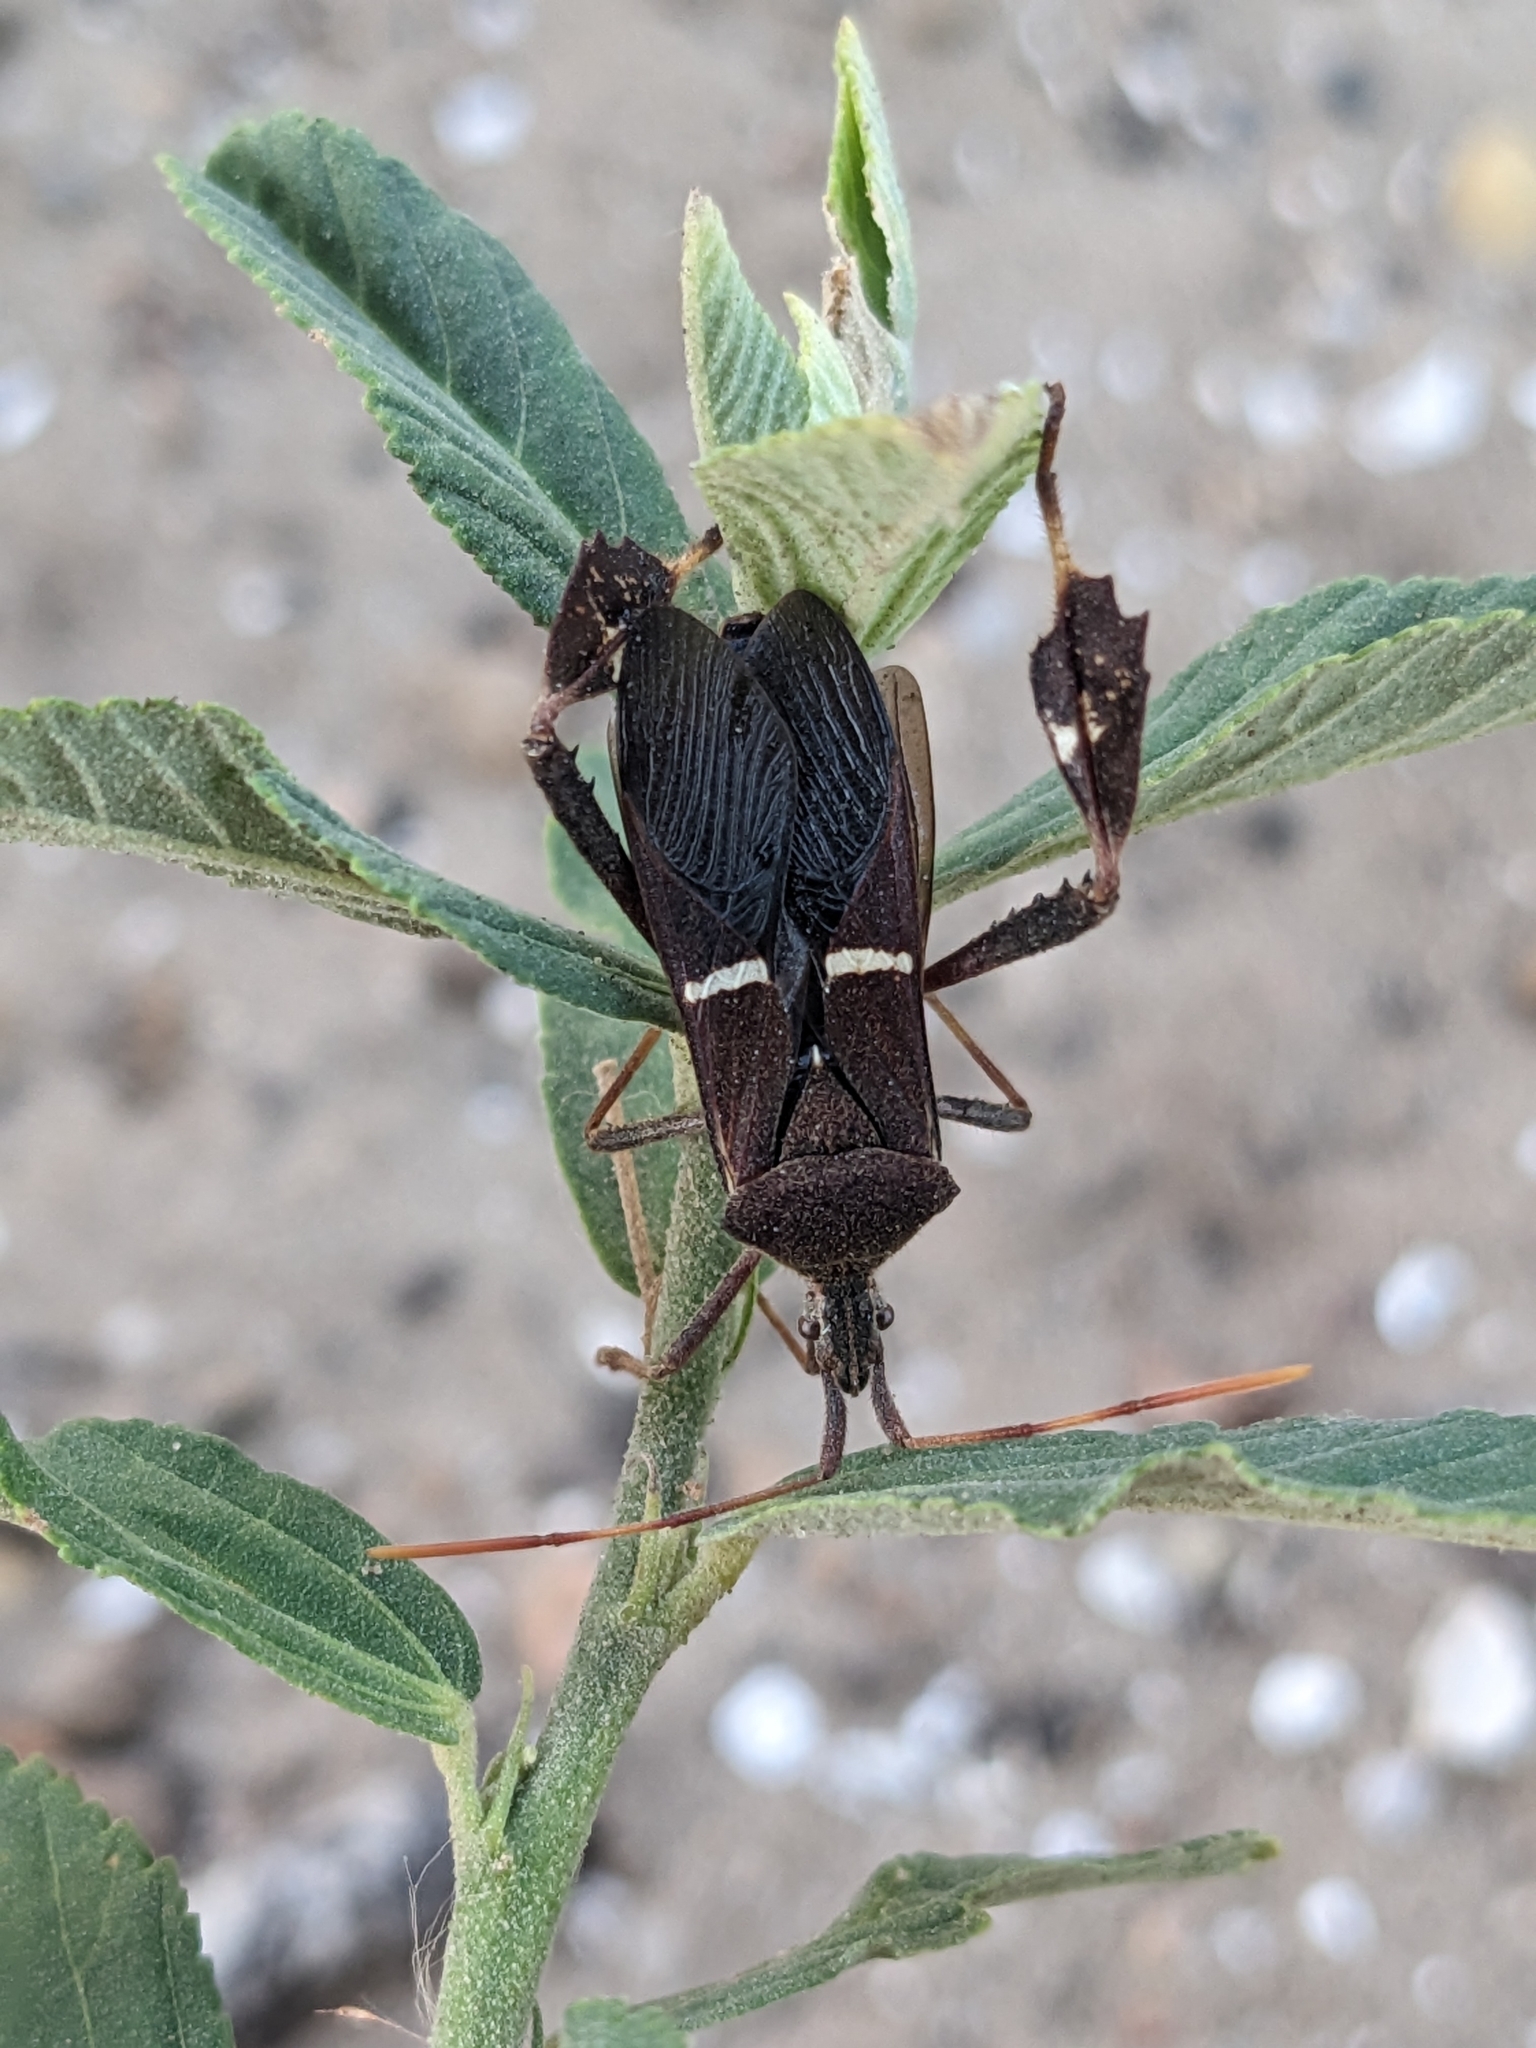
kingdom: Animalia
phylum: Arthropoda
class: Insecta
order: Hemiptera
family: Coreidae
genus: Leptoglossus
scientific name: Leptoglossus phyllopus
